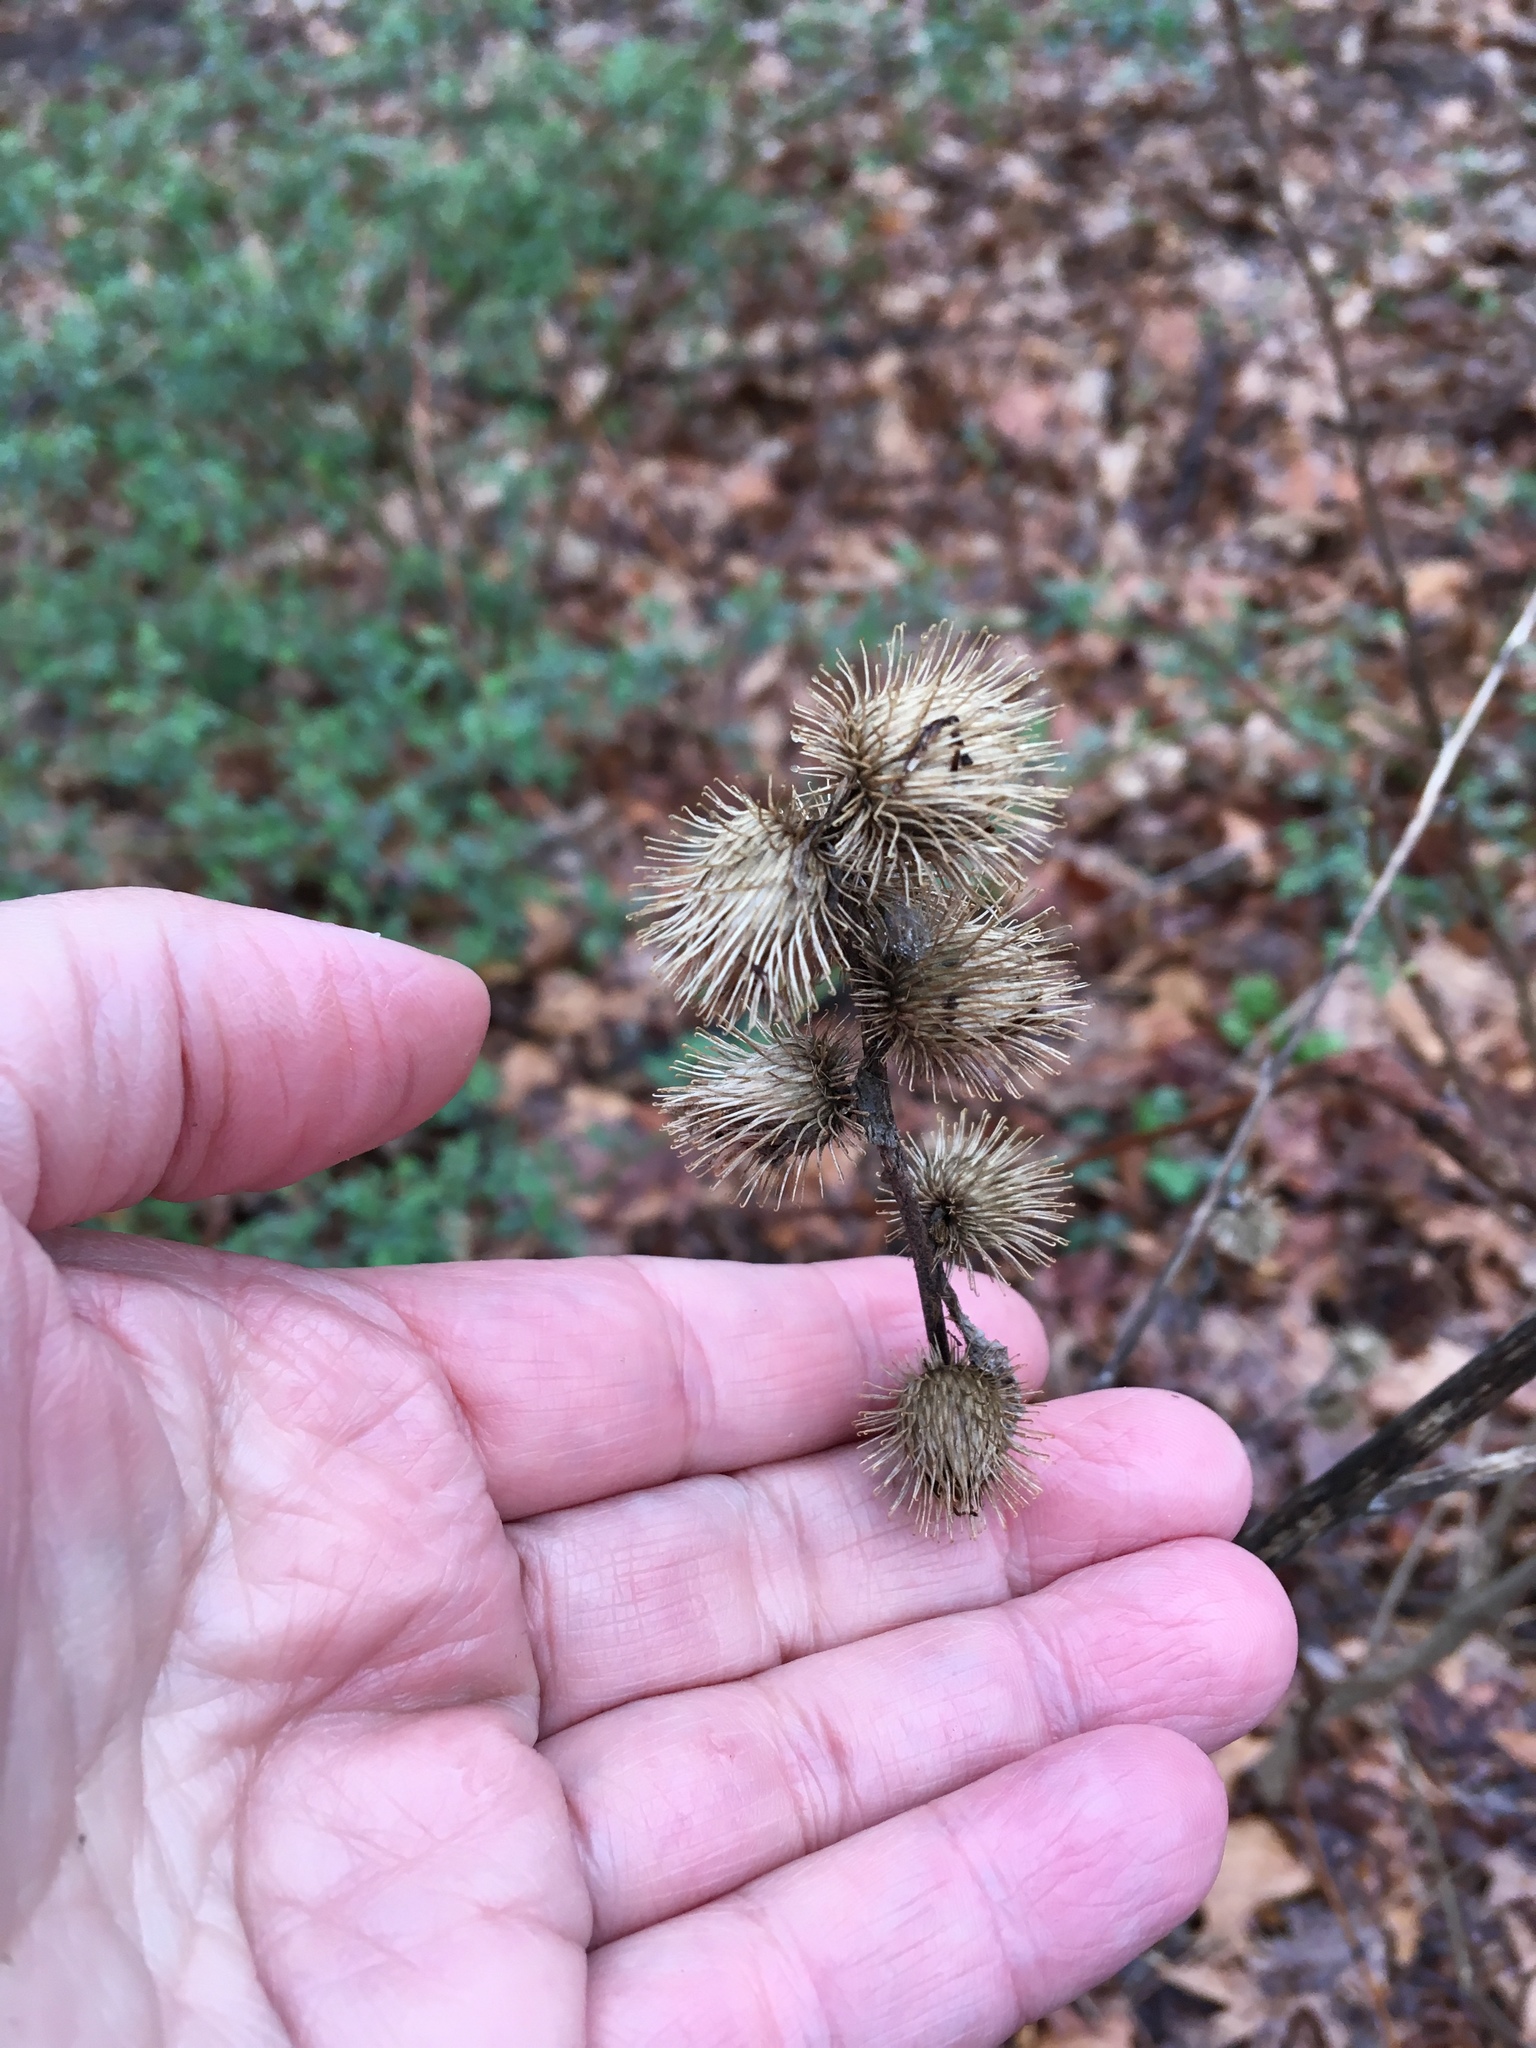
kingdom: Plantae
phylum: Tracheophyta
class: Magnoliopsida
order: Asterales
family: Asteraceae
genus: Arctium
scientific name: Arctium minus
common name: Lesser burdock
